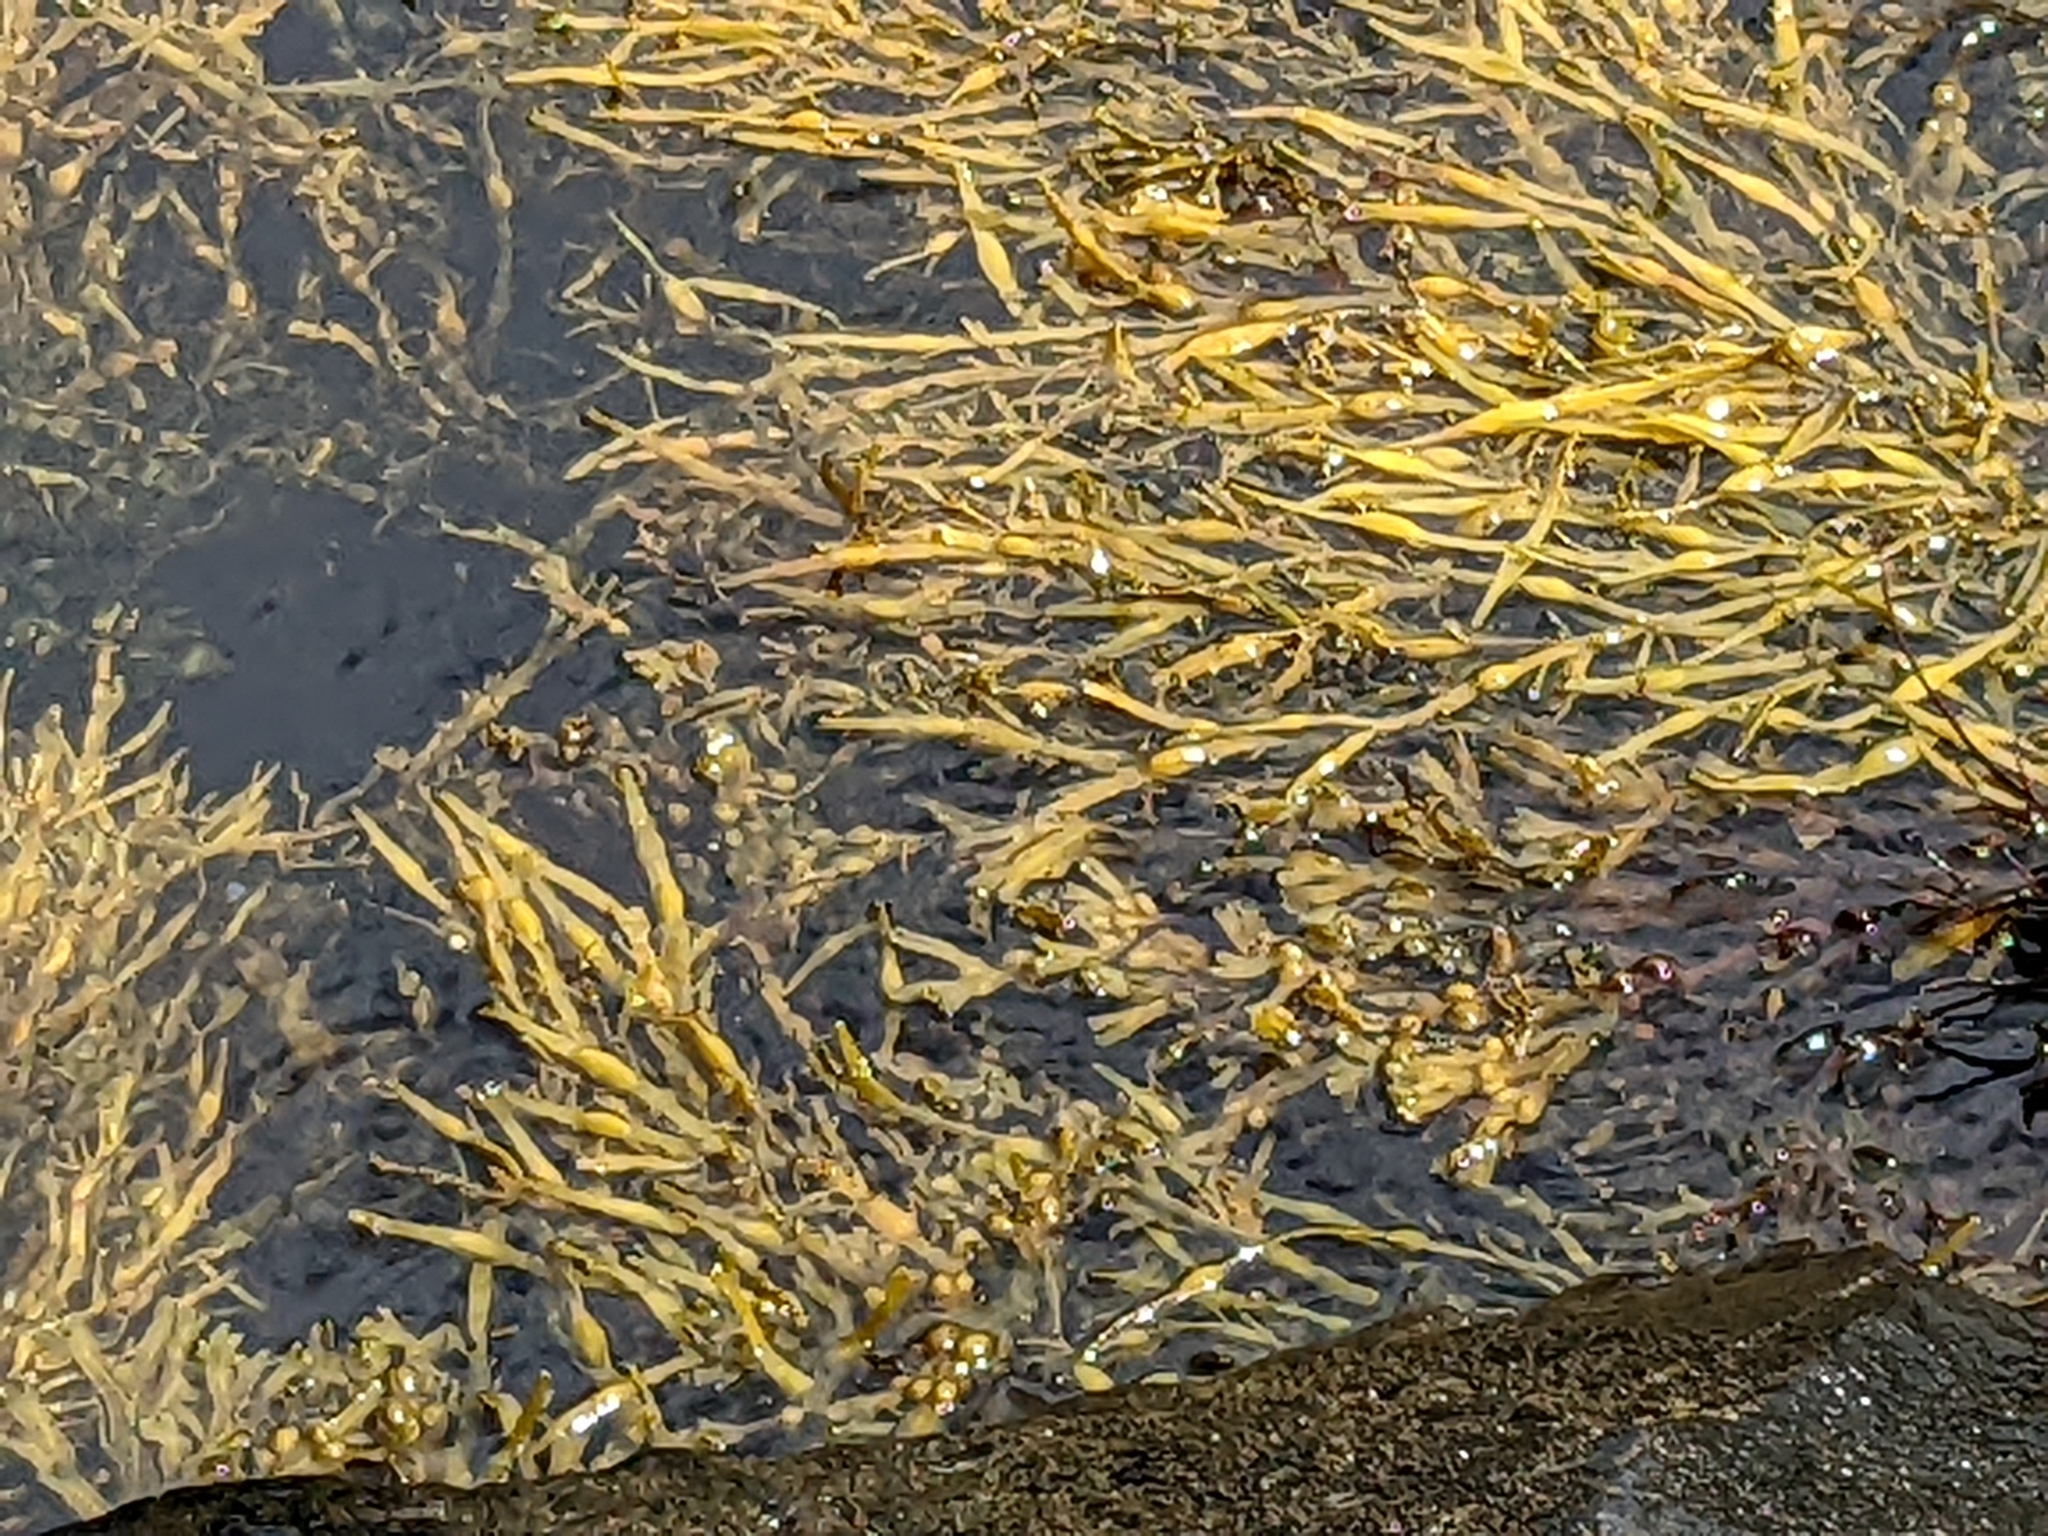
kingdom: Chromista
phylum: Ochrophyta
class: Phaeophyceae
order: Fucales
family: Fucaceae
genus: Ascophyllum
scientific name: Ascophyllum nodosum
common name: Knotted wrack
